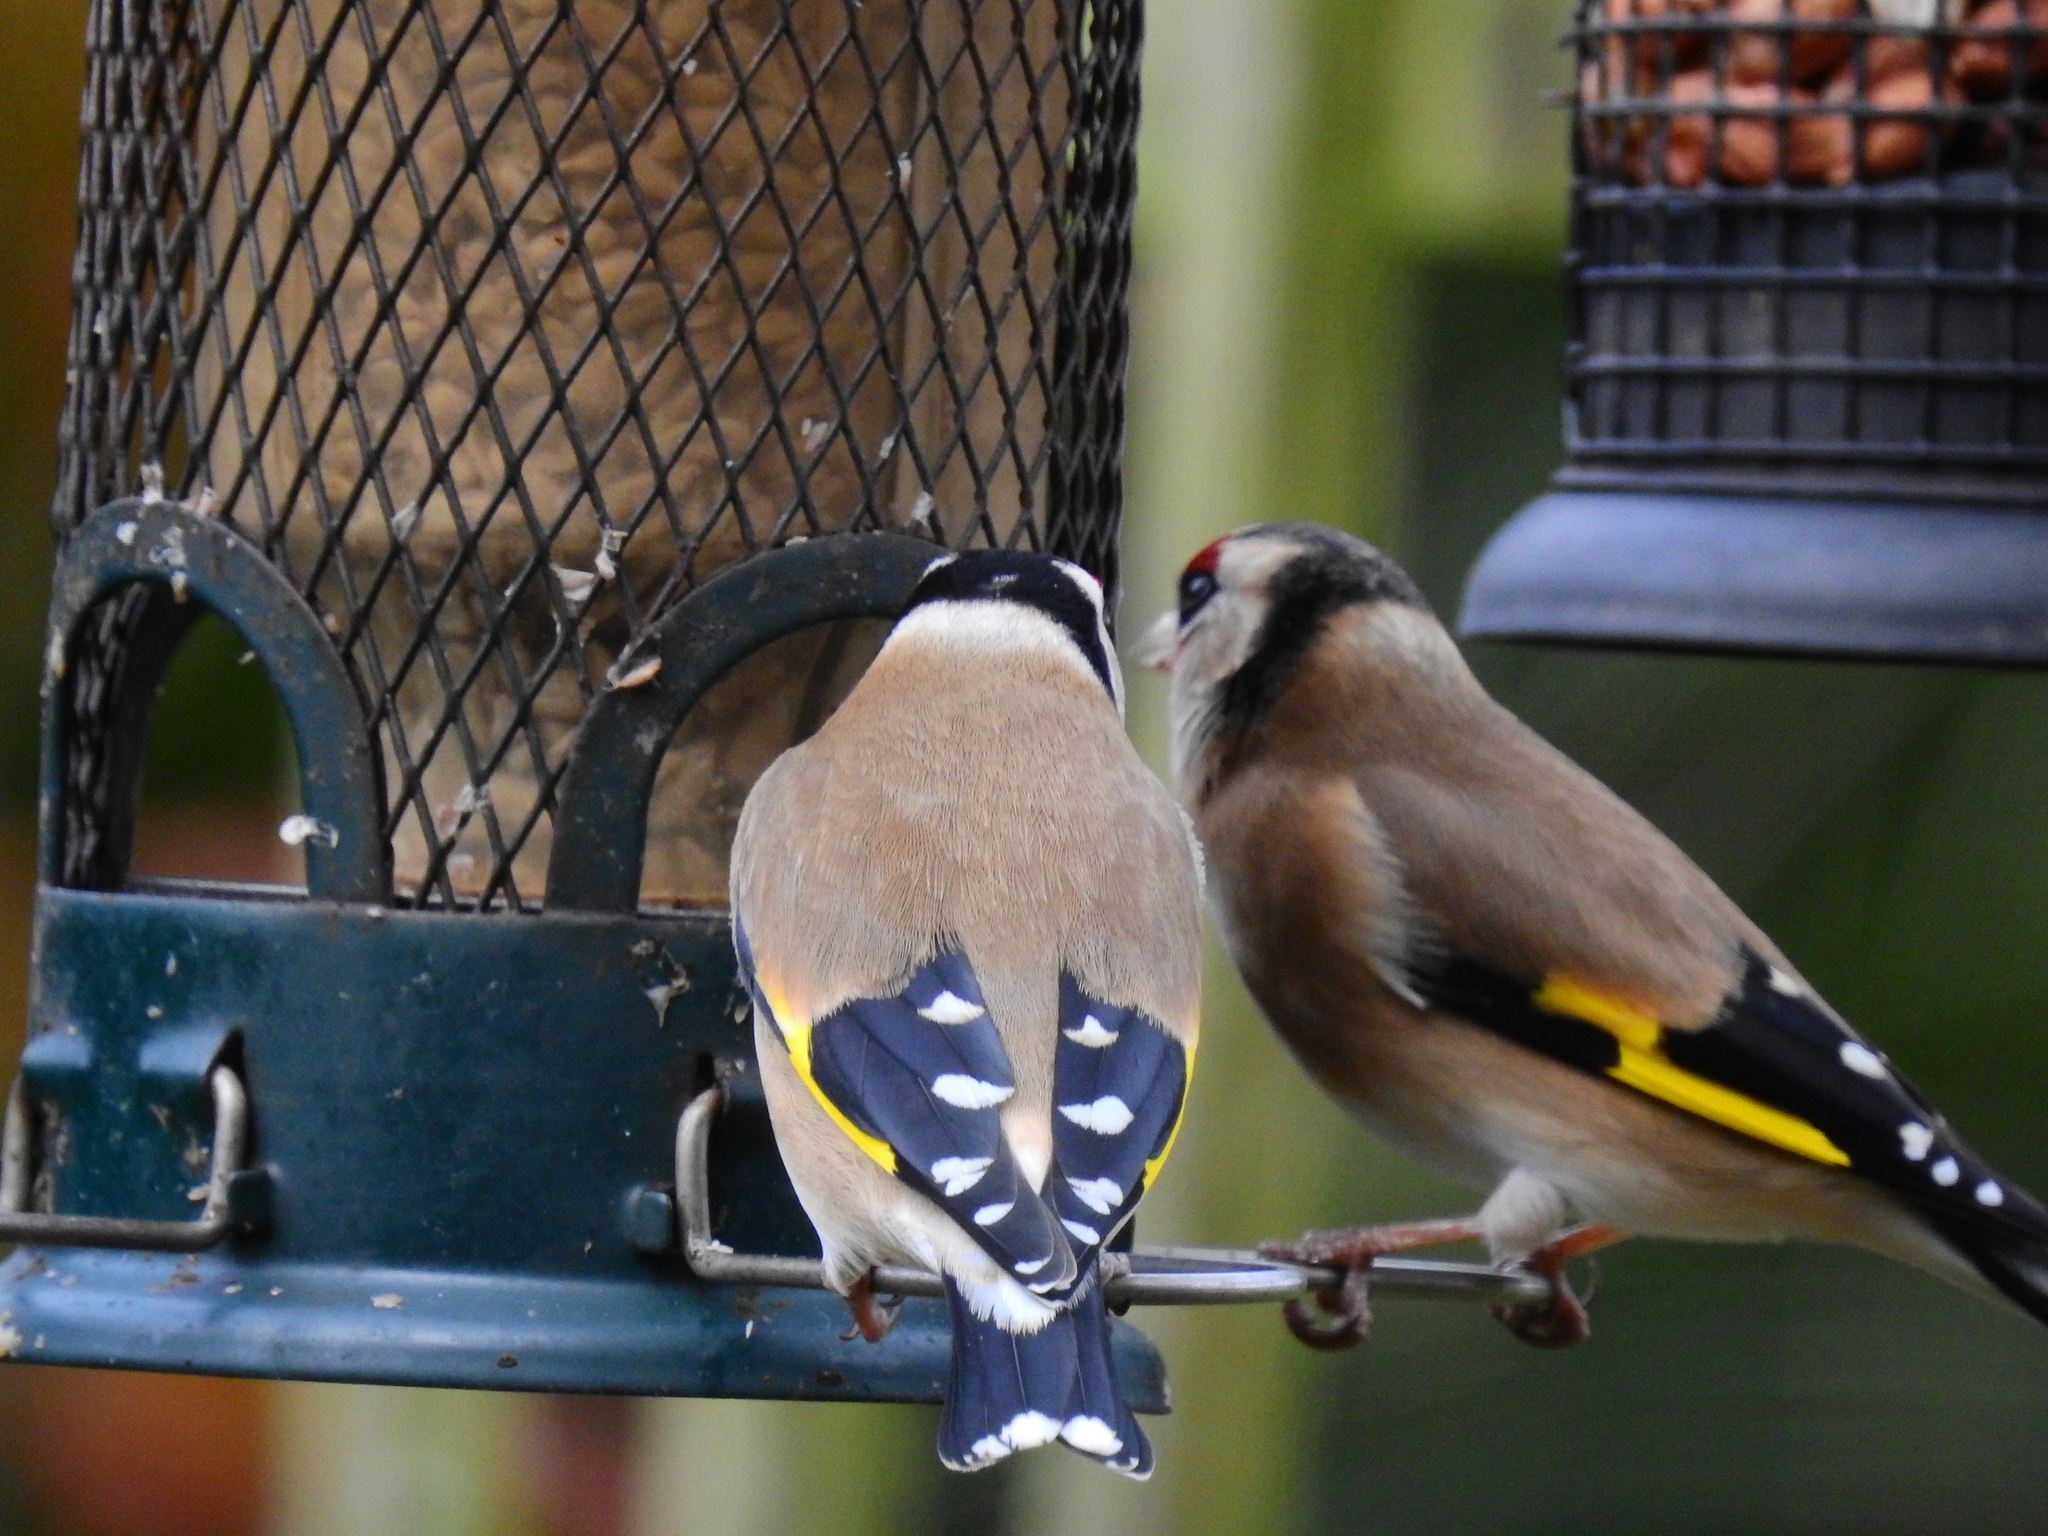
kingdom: Animalia
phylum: Chordata
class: Aves
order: Passeriformes
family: Fringillidae
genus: Carduelis
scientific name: Carduelis carduelis
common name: European goldfinch
